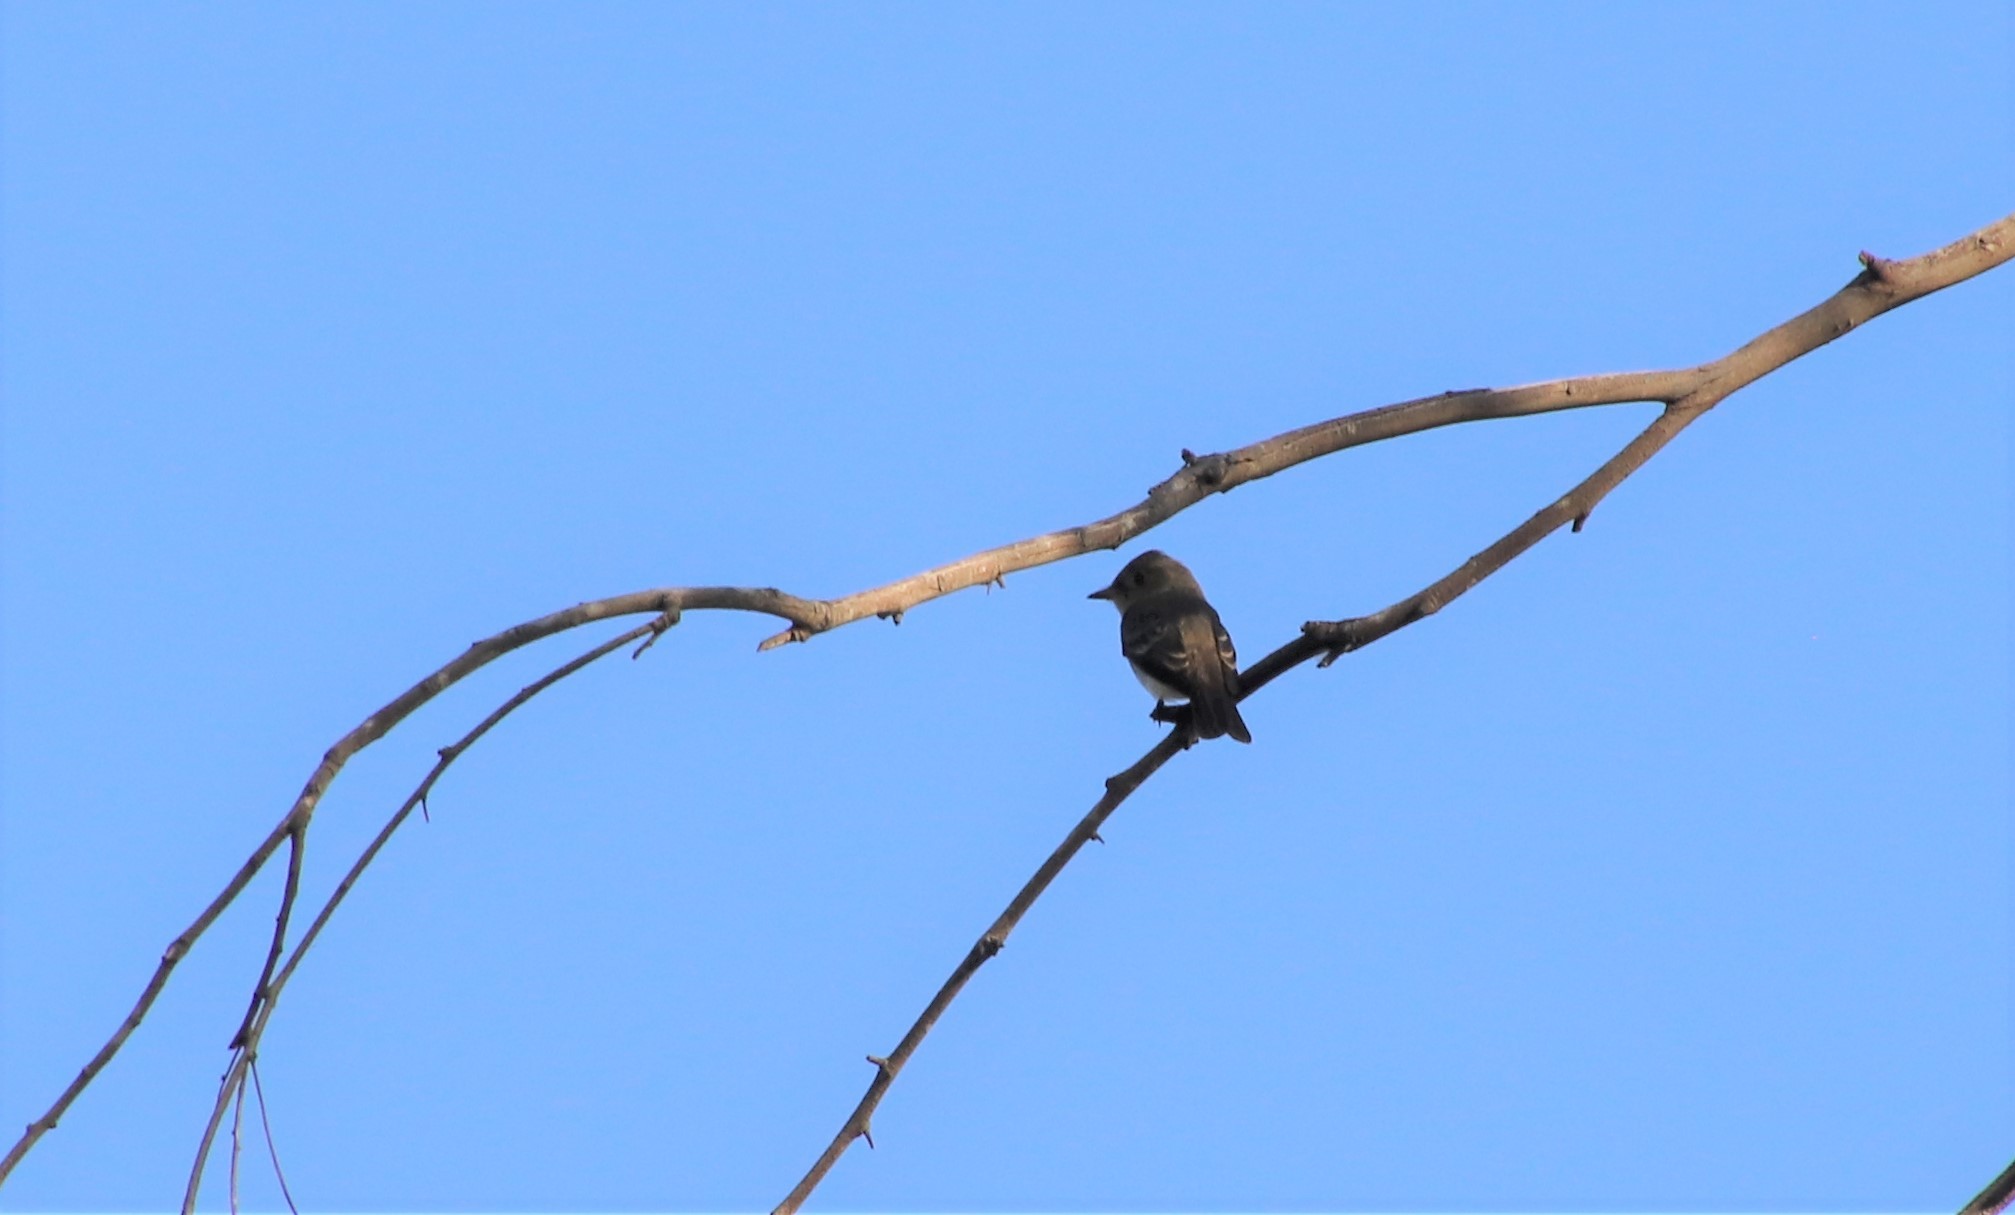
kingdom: Animalia
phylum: Chordata
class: Aves
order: Passeriformes
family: Tyrannidae
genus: Contopus
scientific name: Contopus sordidulus
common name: Western wood-pewee
